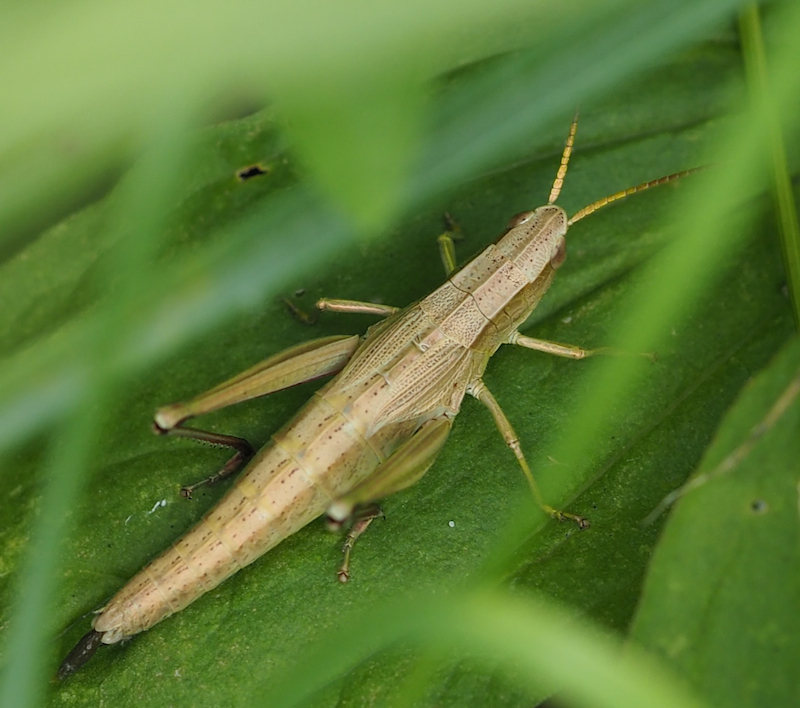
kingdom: Animalia
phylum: Arthropoda
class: Insecta
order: Orthoptera
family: Acrididae
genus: Chrysochraon
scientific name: Chrysochraon dispar
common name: Large gold grasshopper
